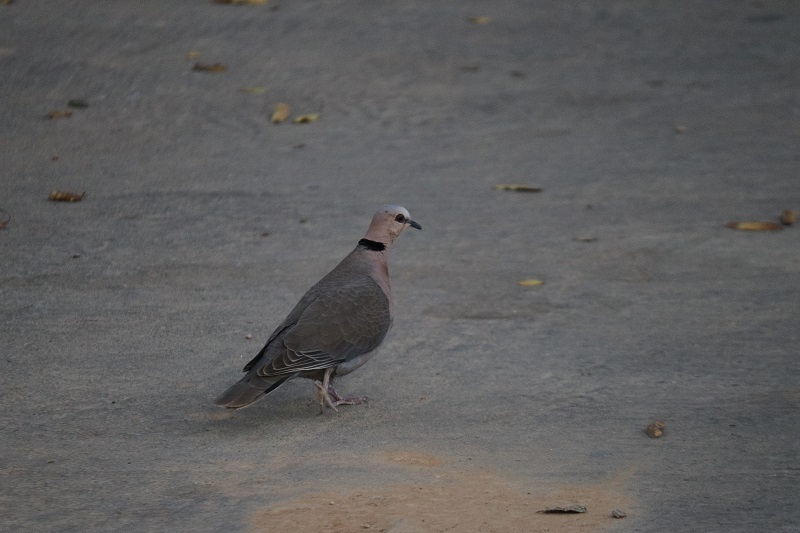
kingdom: Animalia
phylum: Chordata
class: Aves
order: Columbiformes
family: Columbidae
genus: Streptopelia
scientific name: Streptopelia semitorquata
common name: Red-eyed dove
